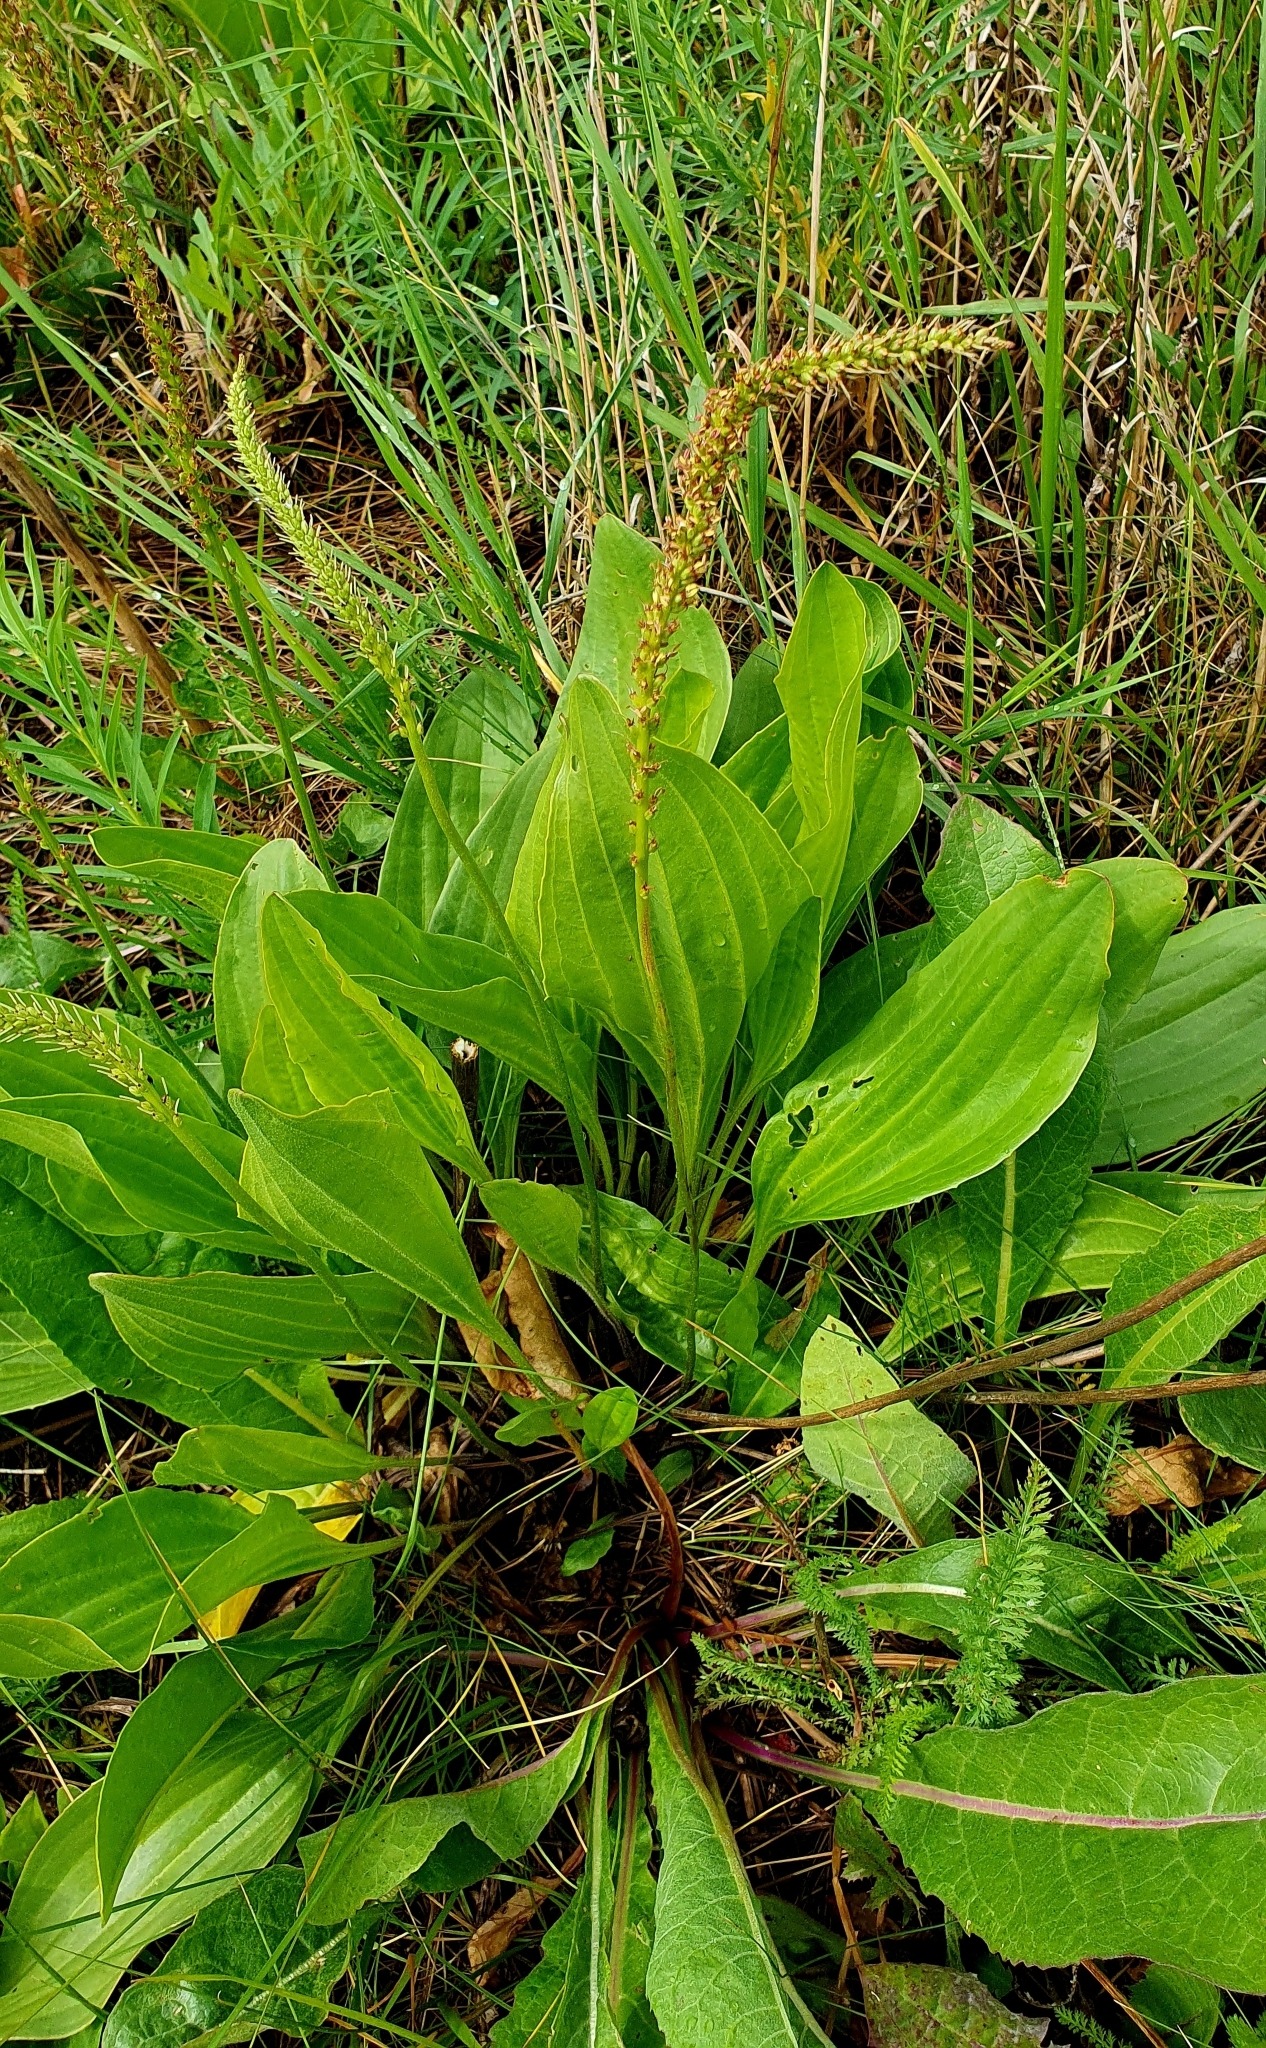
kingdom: Plantae
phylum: Tracheophyta
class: Magnoliopsida
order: Lamiales
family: Plantaginaceae
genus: Plantago
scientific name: Plantago cornuti
